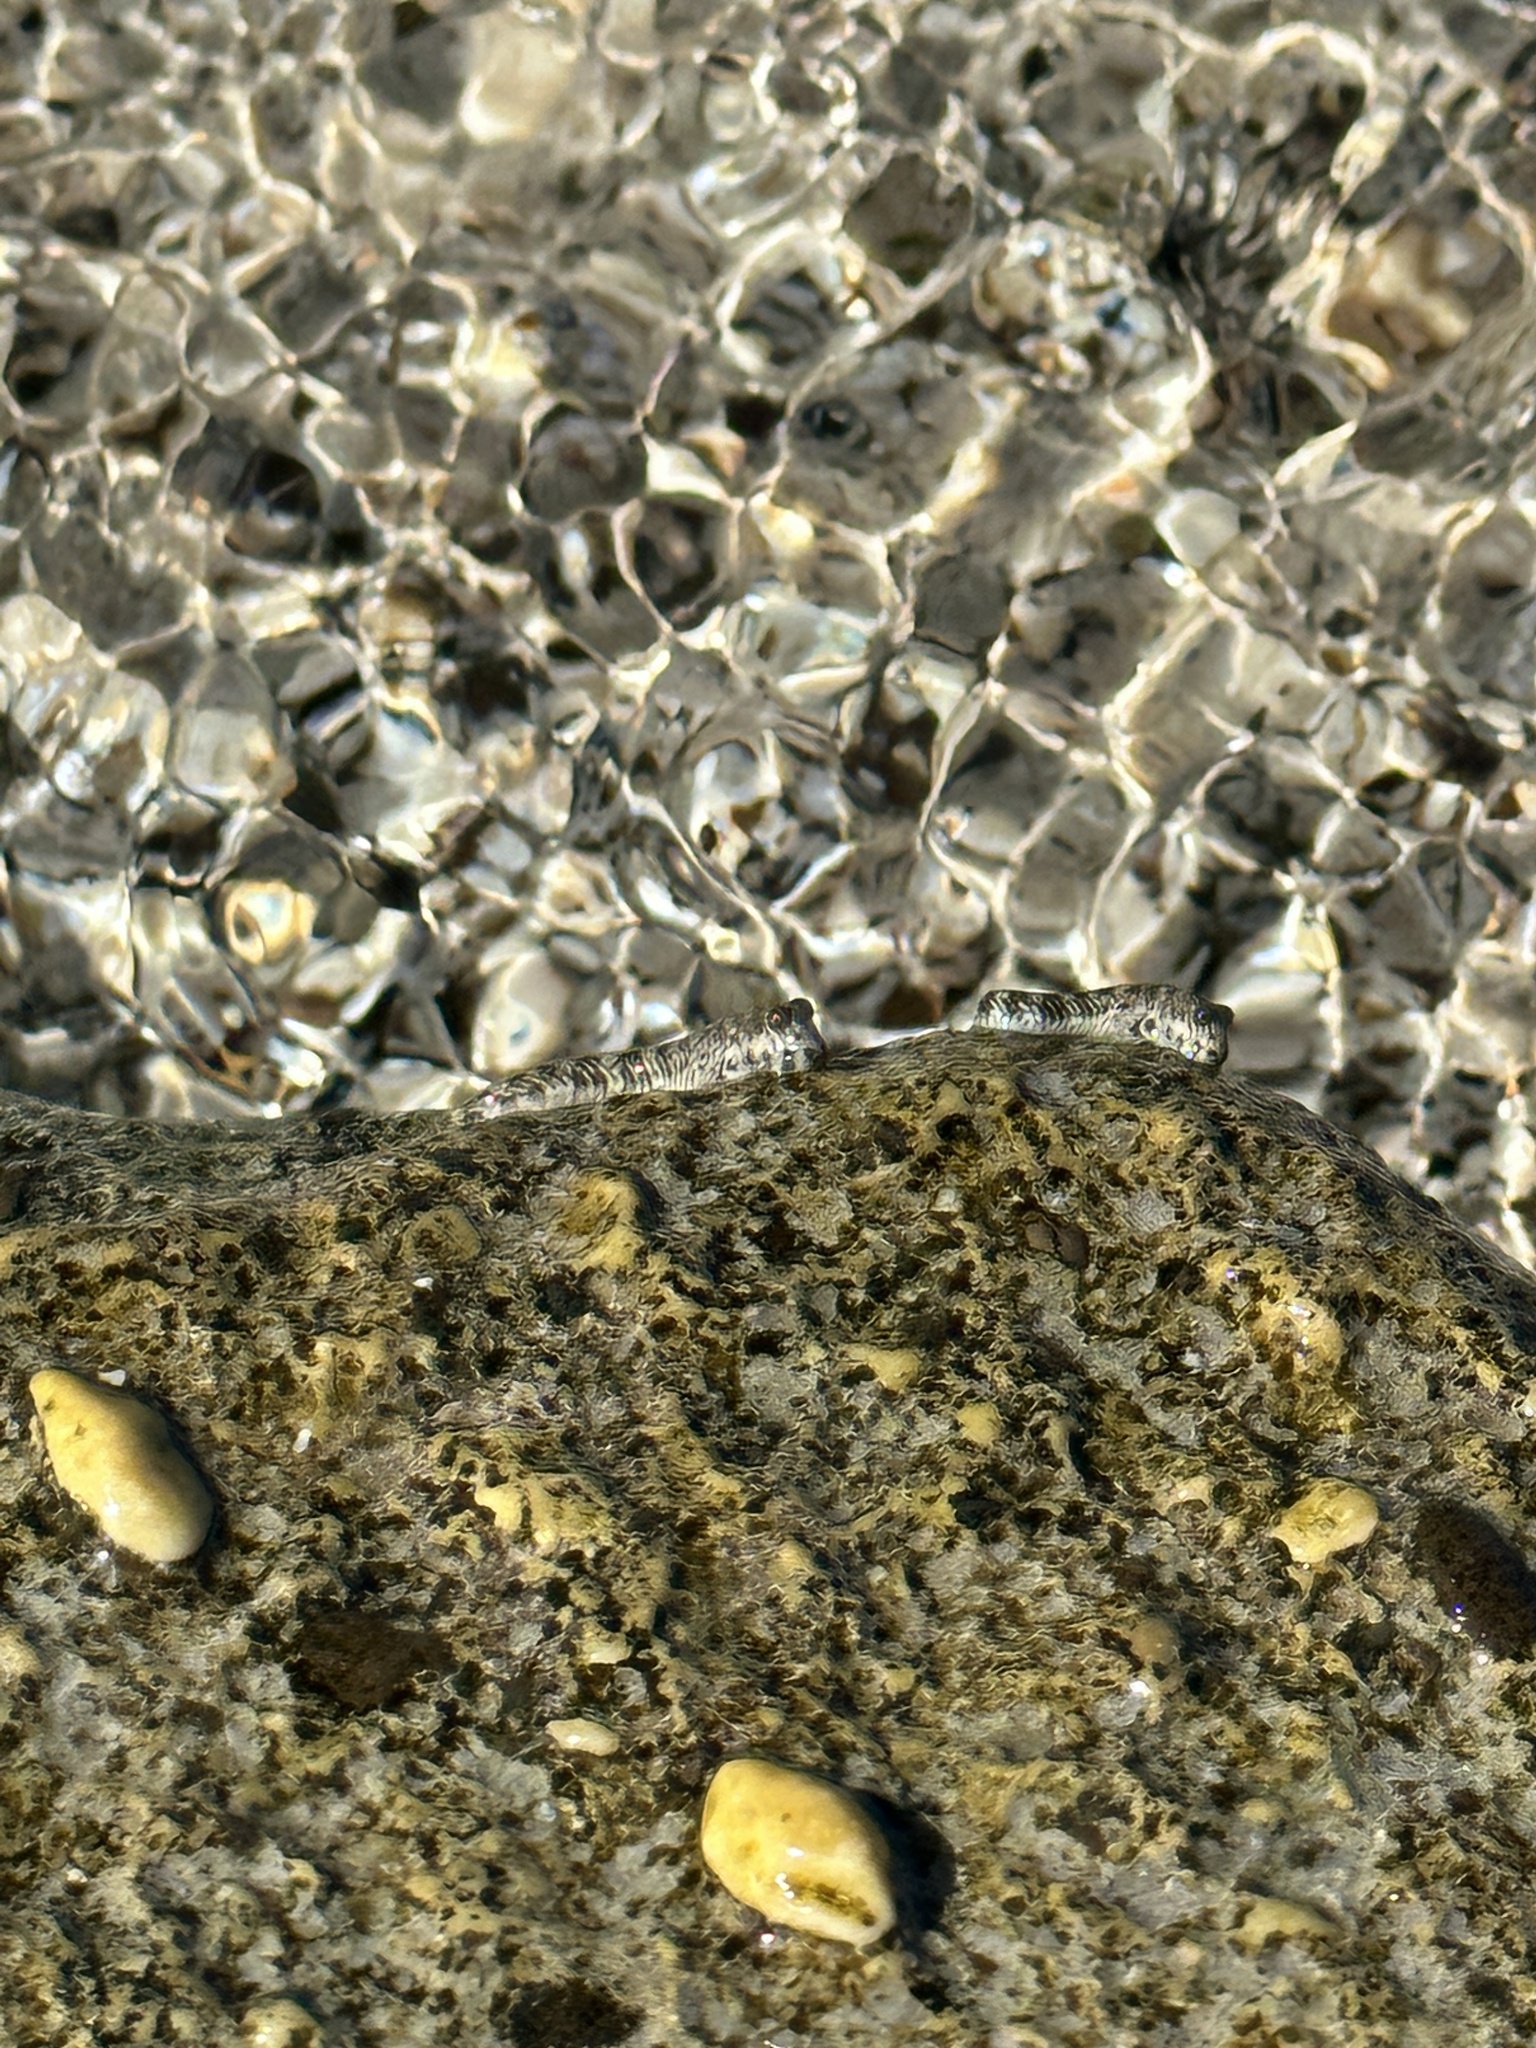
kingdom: Animalia
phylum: Chordata
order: Perciformes
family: Blenniidae
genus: Alticus
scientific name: Alticus orientalis
